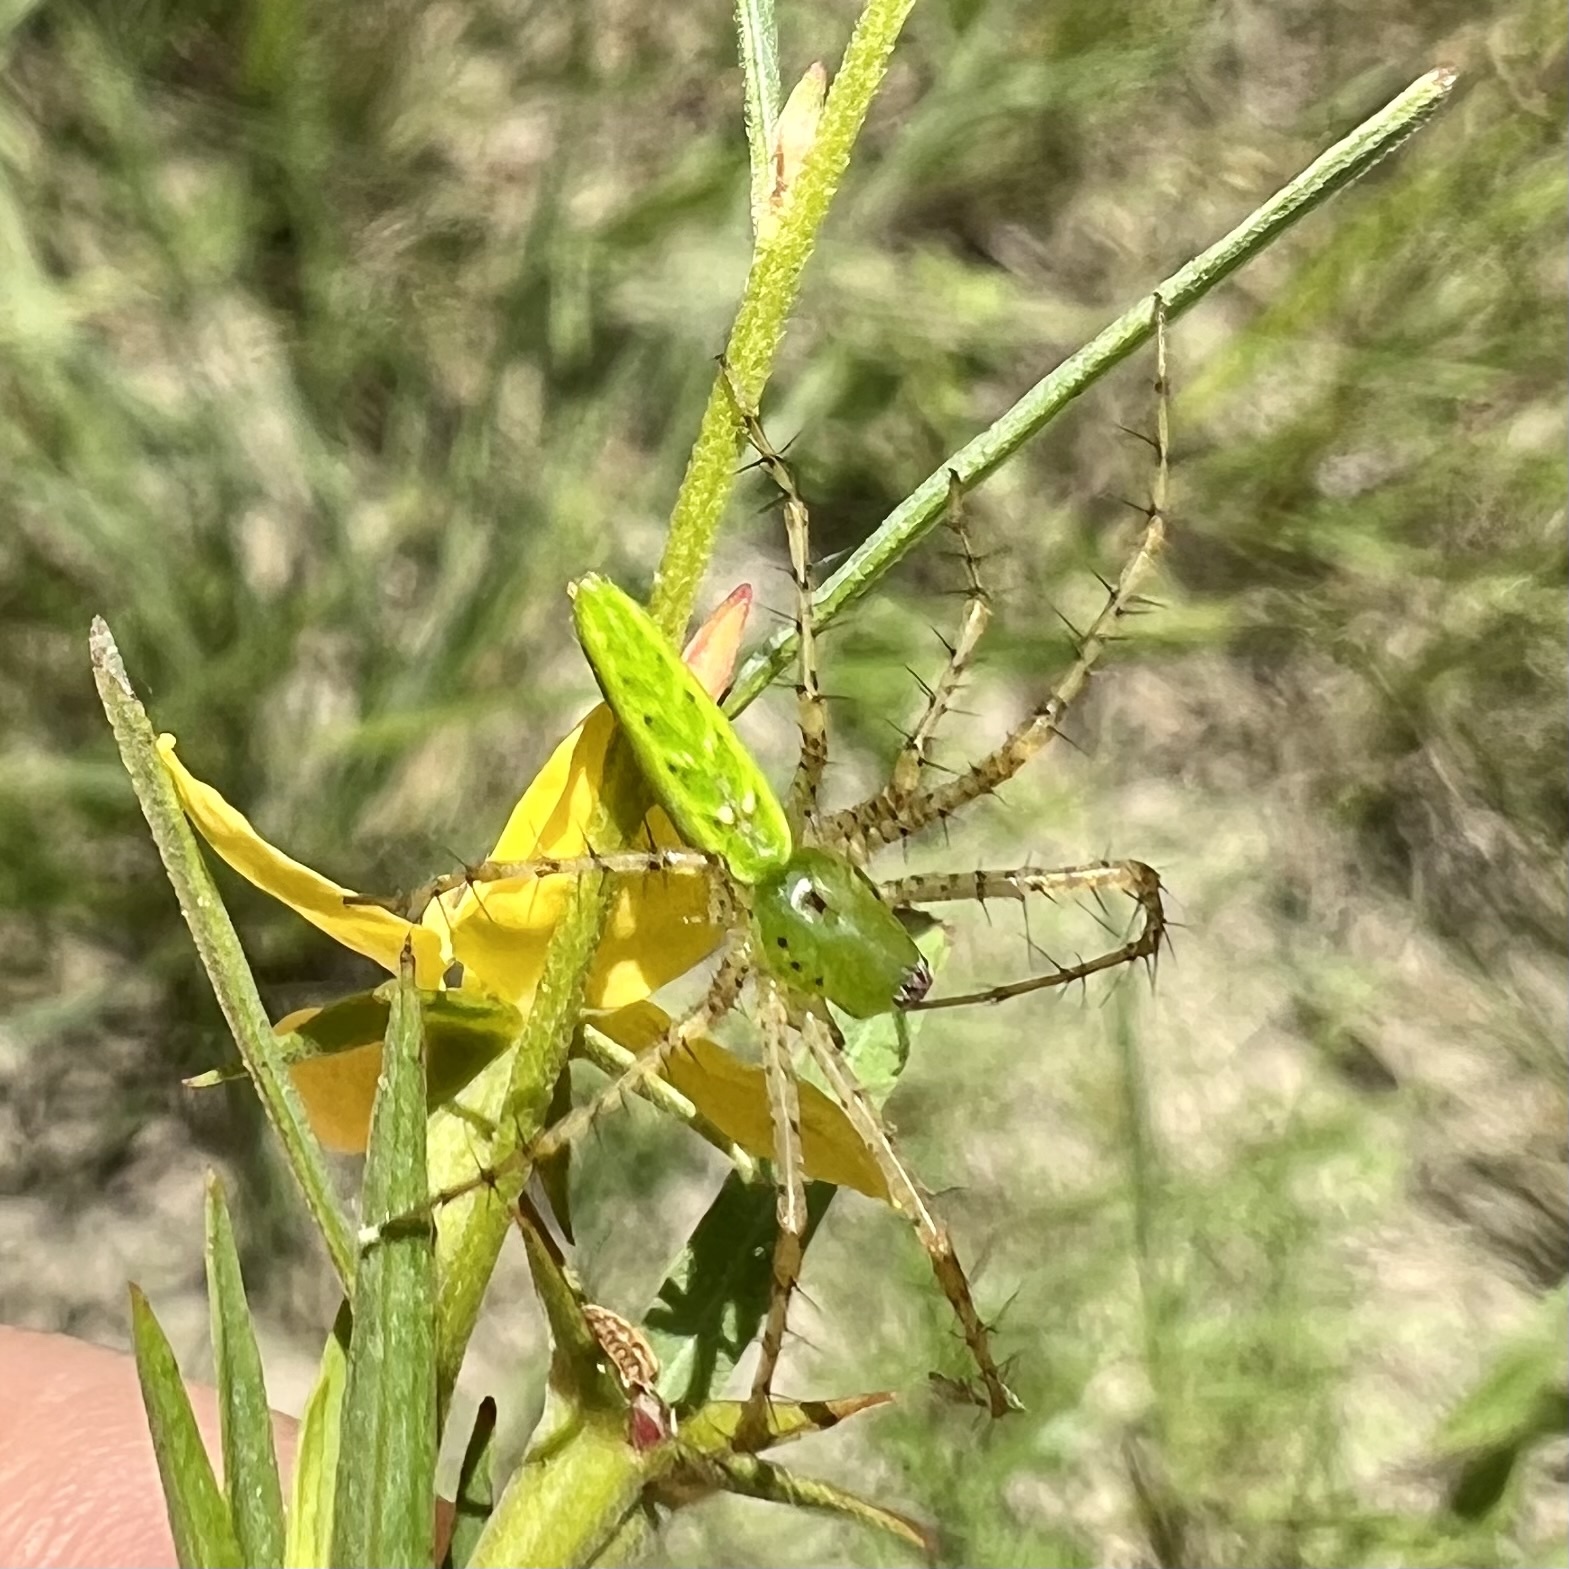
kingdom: Animalia
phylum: Arthropoda
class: Arachnida
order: Araneae
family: Oxyopidae
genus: Peucetia
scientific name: Peucetia viridans
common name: Lynx spiders
